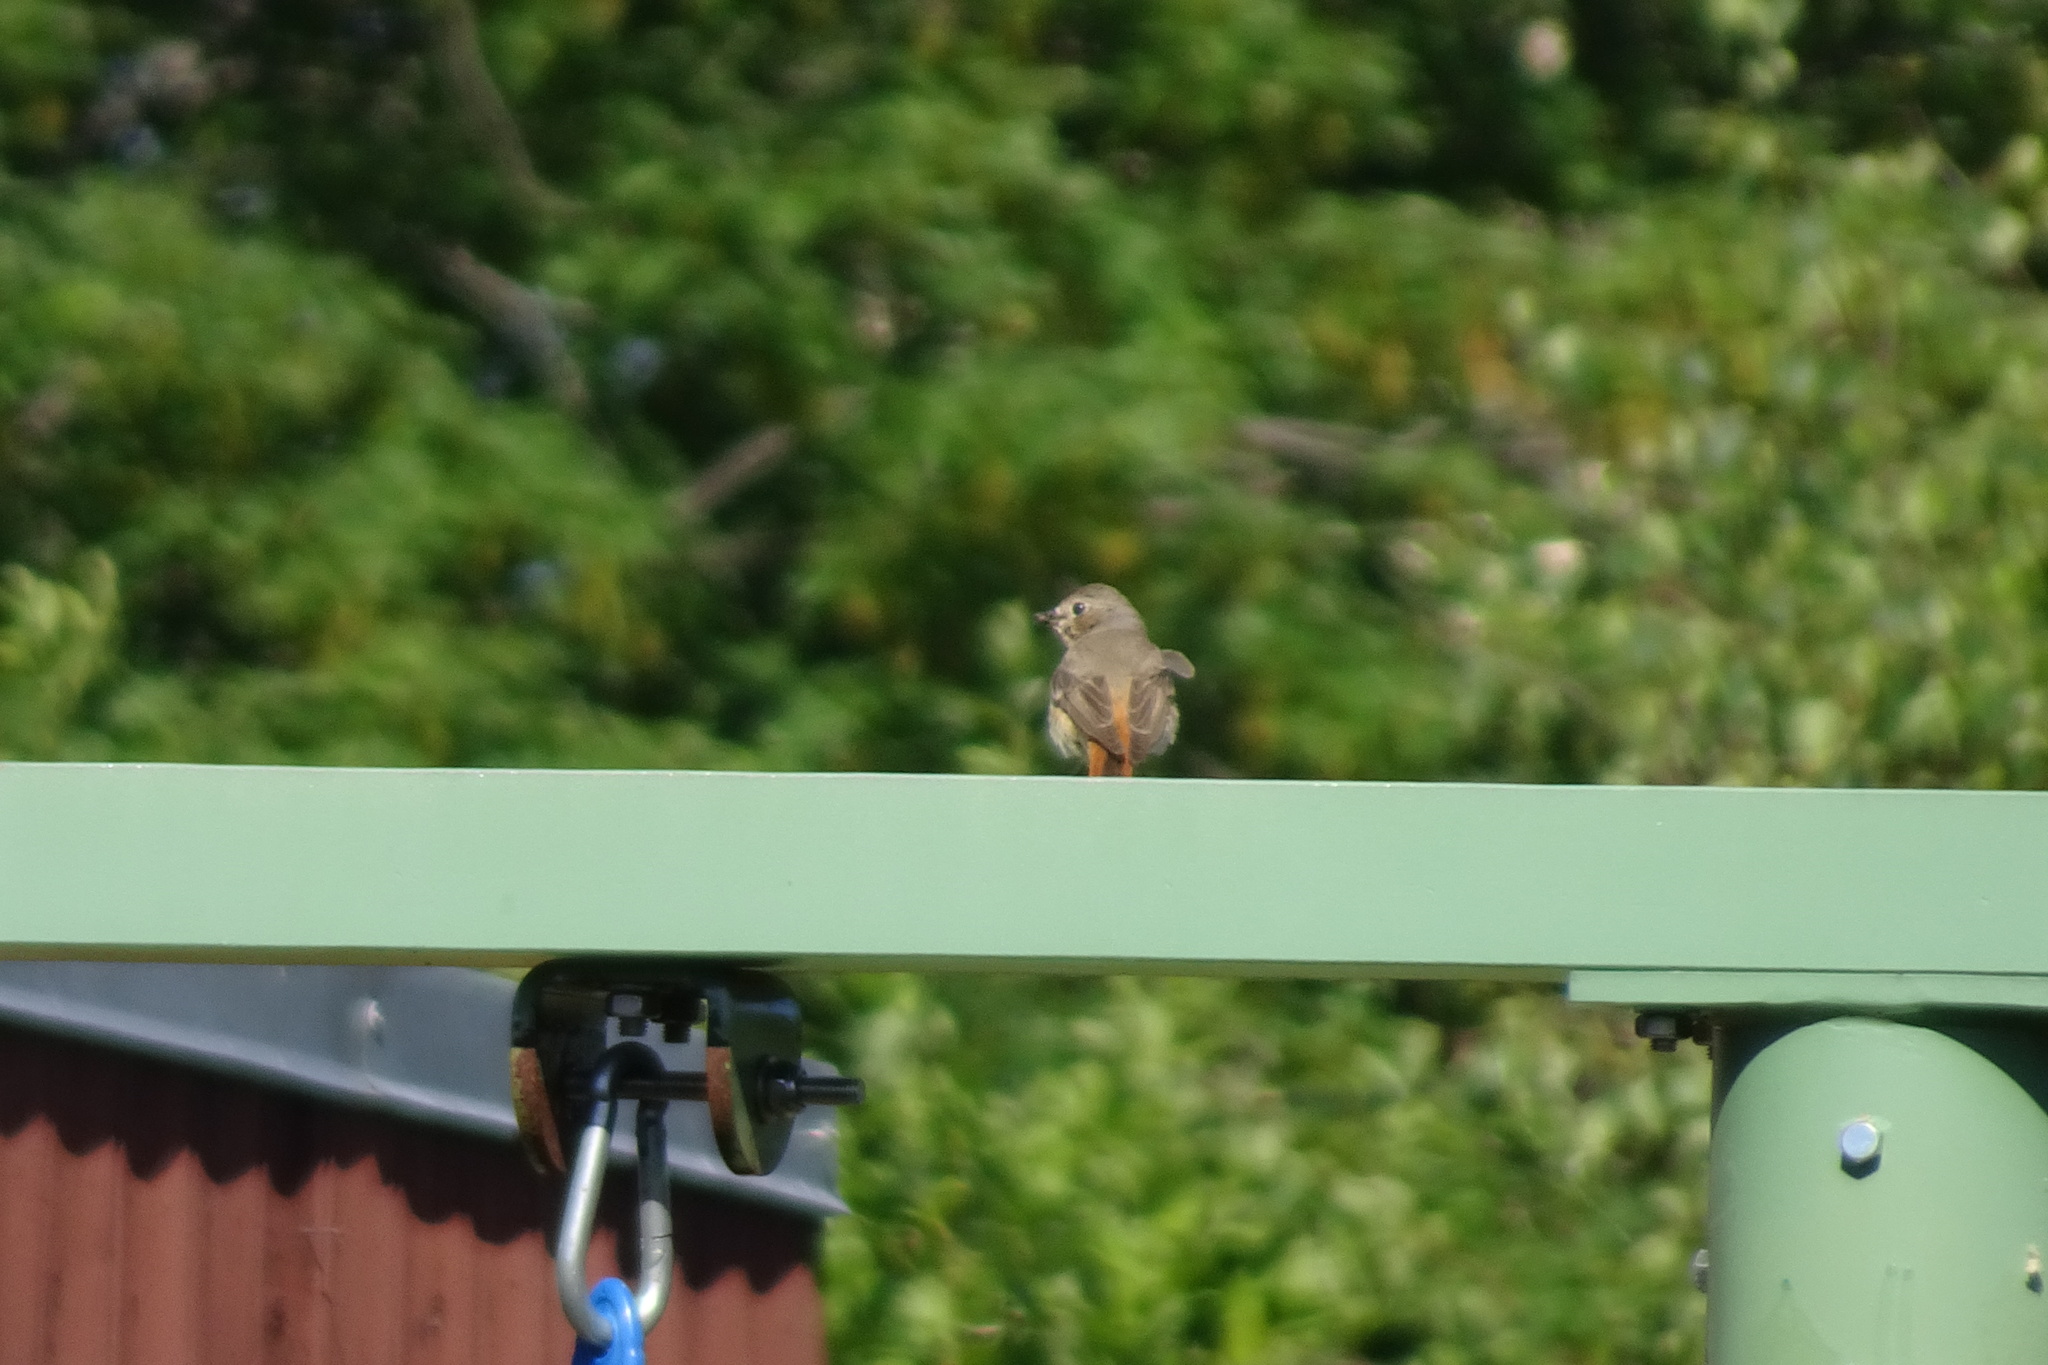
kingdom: Animalia
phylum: Chordata
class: Aves
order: Passeriformes
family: Muscicapidae
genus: Phoenicurus
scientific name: Phoenicurus ochruros
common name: Black redstart
